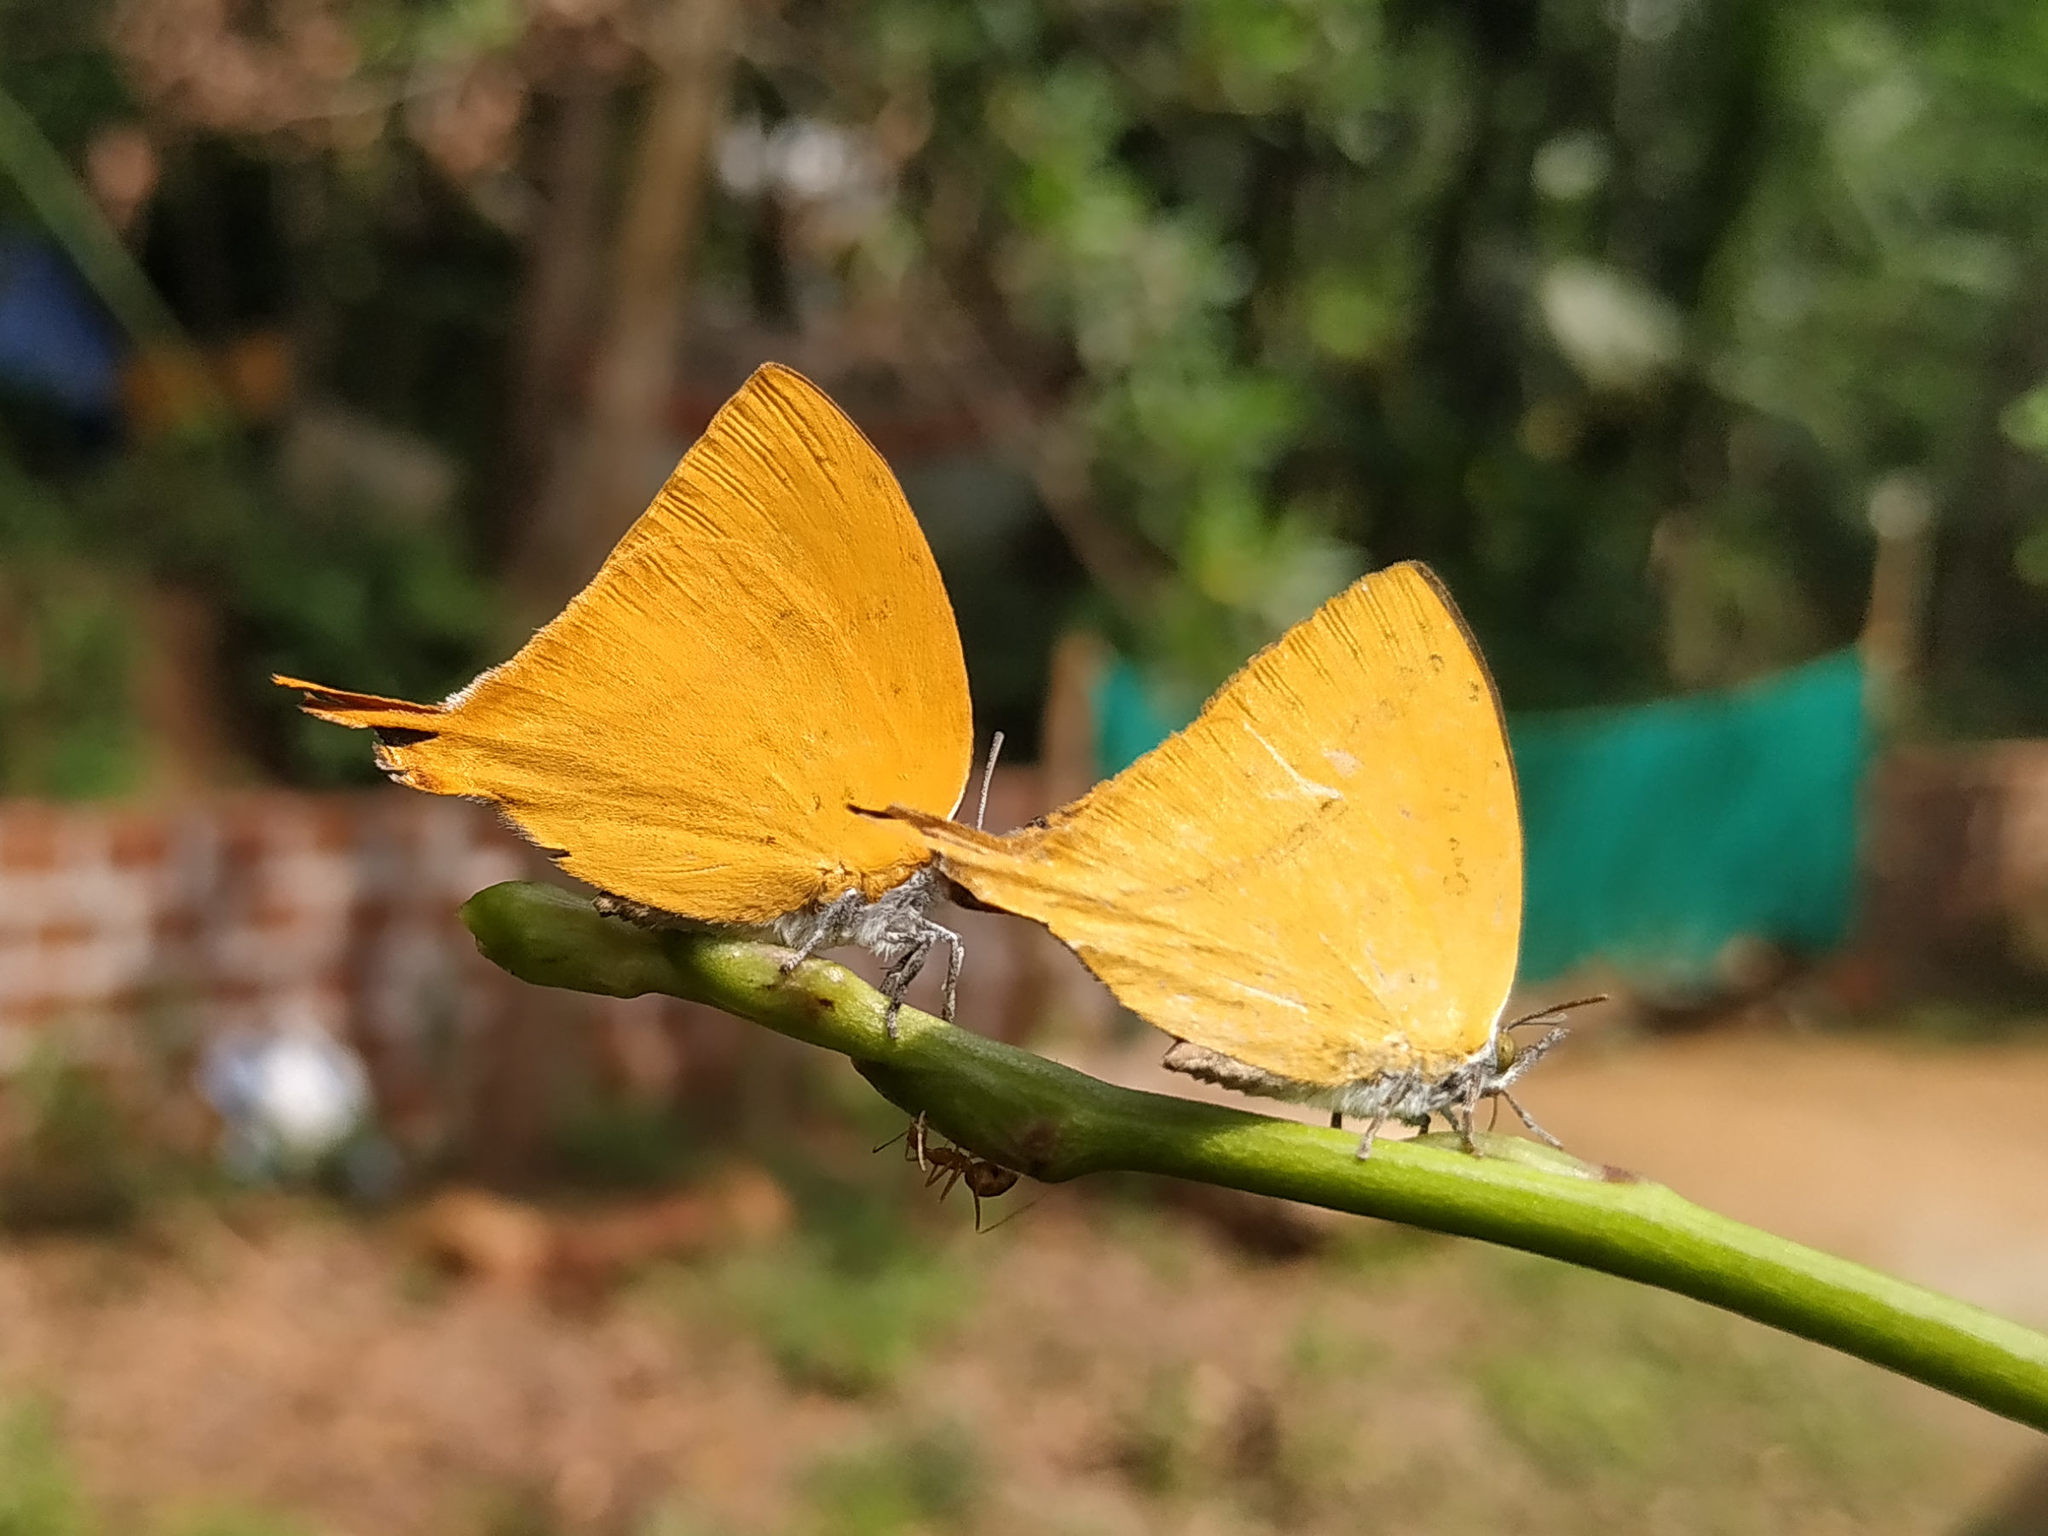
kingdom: Animalia
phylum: Arthropoda
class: Insecta
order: Lepidoptera
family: Lycaenidae
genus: Loxura
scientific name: Loxura atymnus
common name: Common yamfly
